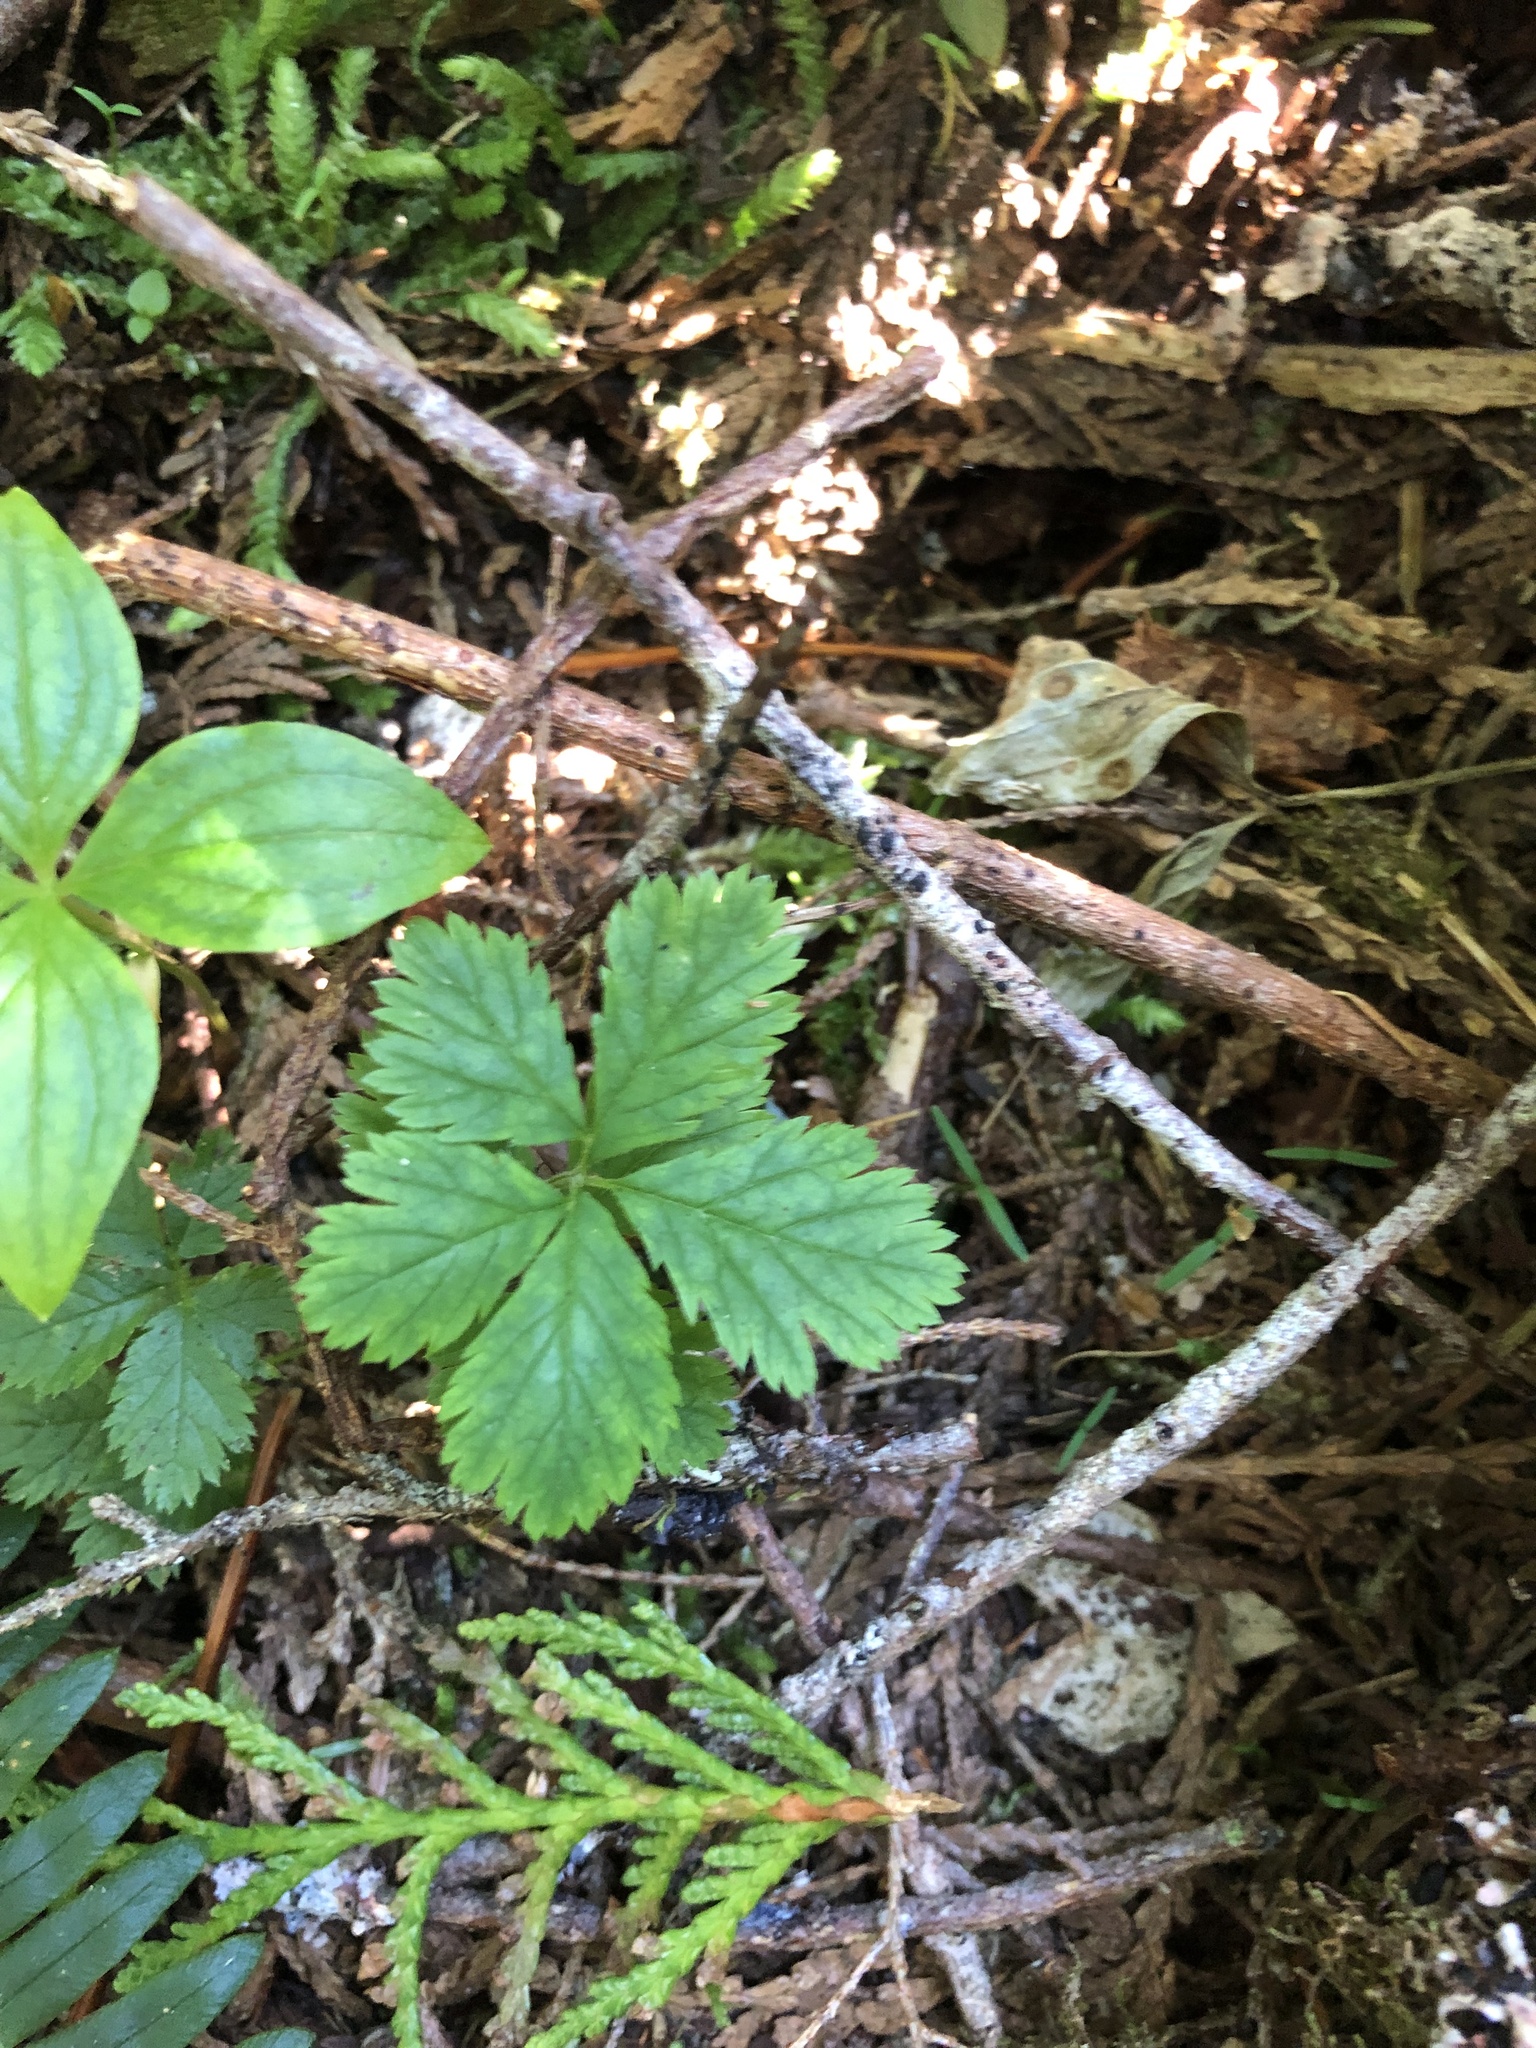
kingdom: Plantae
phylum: Tracheophyta
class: Magnoliopsida
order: Rosales
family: Rosaceae
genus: Rubus
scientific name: Rubus pedatus
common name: Creeping raspberry
